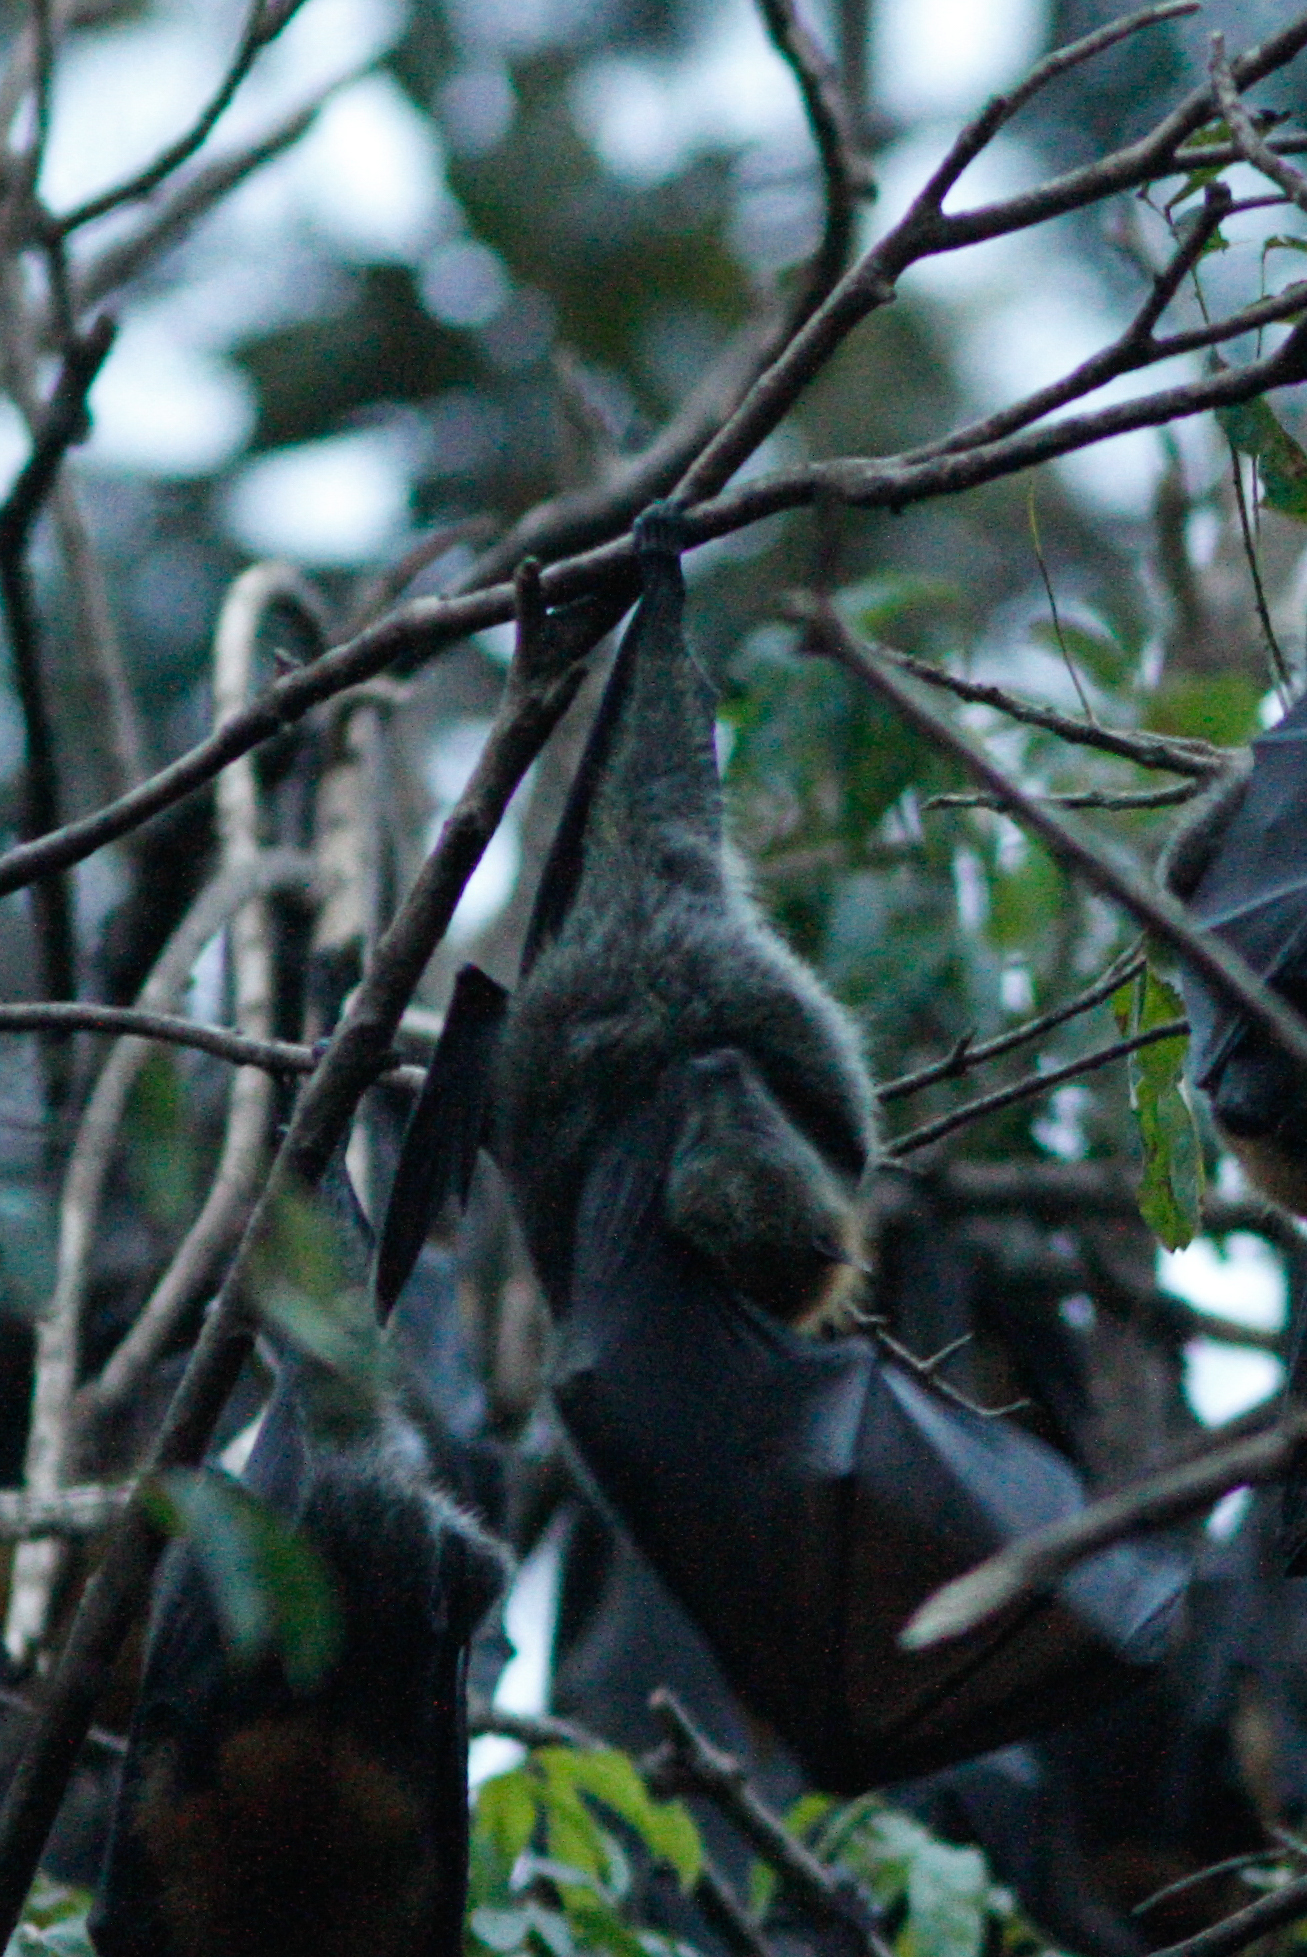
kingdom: Animalia
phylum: Chordata
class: Mammalia
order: Chiroptera
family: Pteropodidae
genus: Pteropus
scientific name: Pteropus poliocephalus
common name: Gray-headed flying fox
